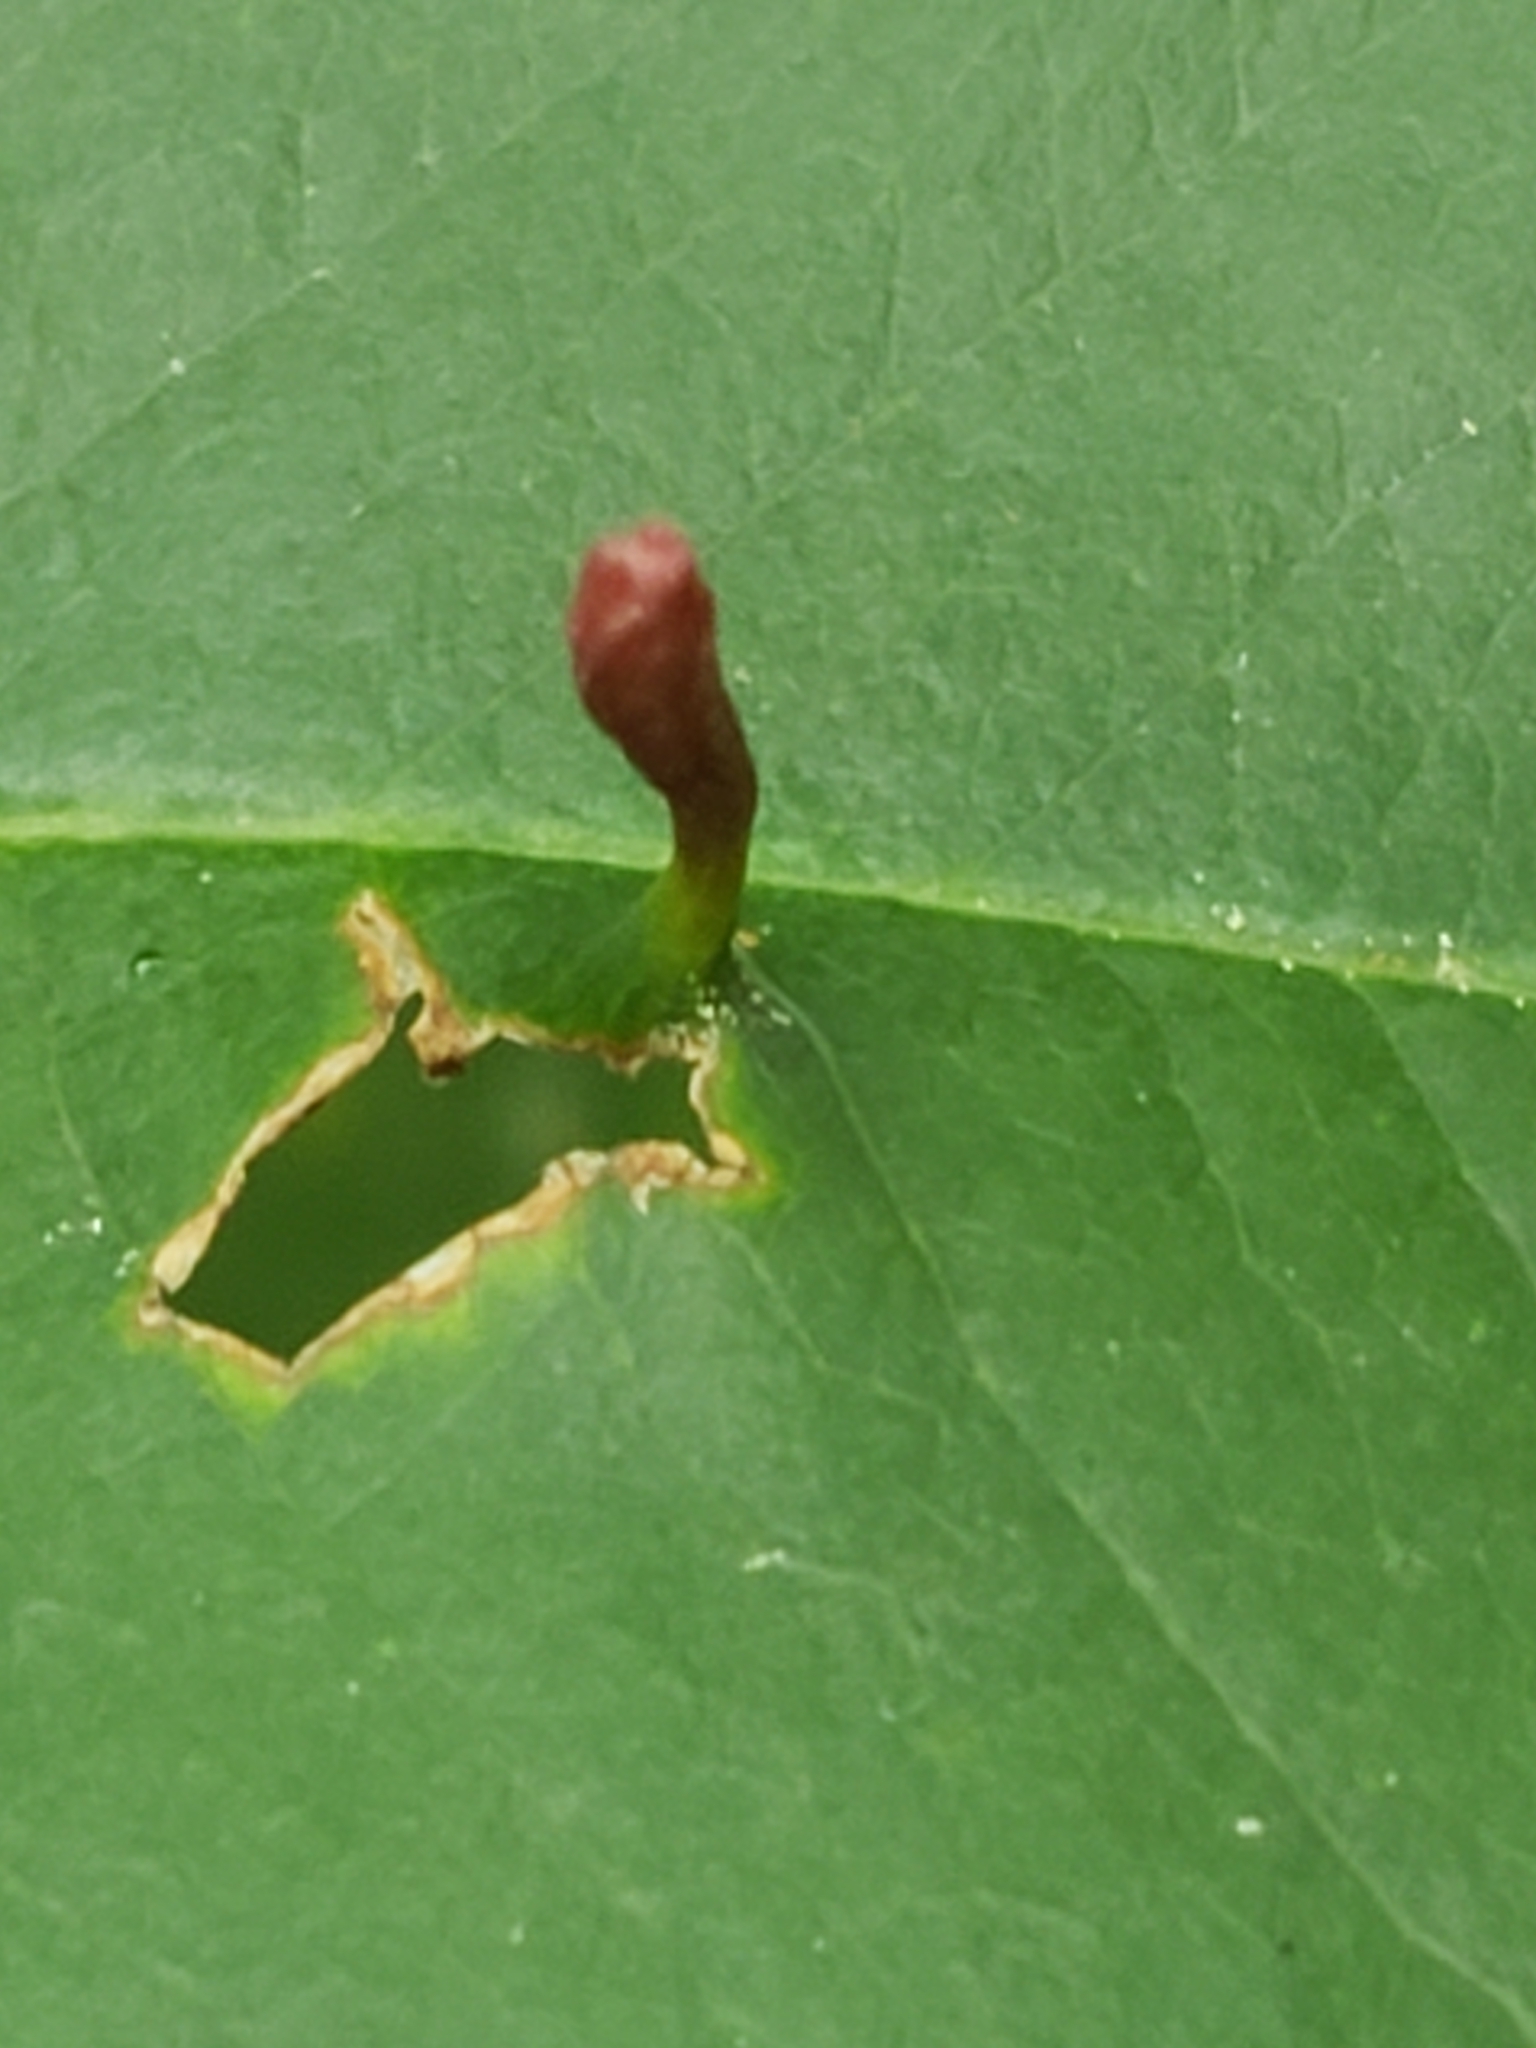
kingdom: Animalia
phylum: Arthropoda
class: Arachnida
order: Trombidiformes
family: Eriophyidae
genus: Eriophyes
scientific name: Eriophyes
